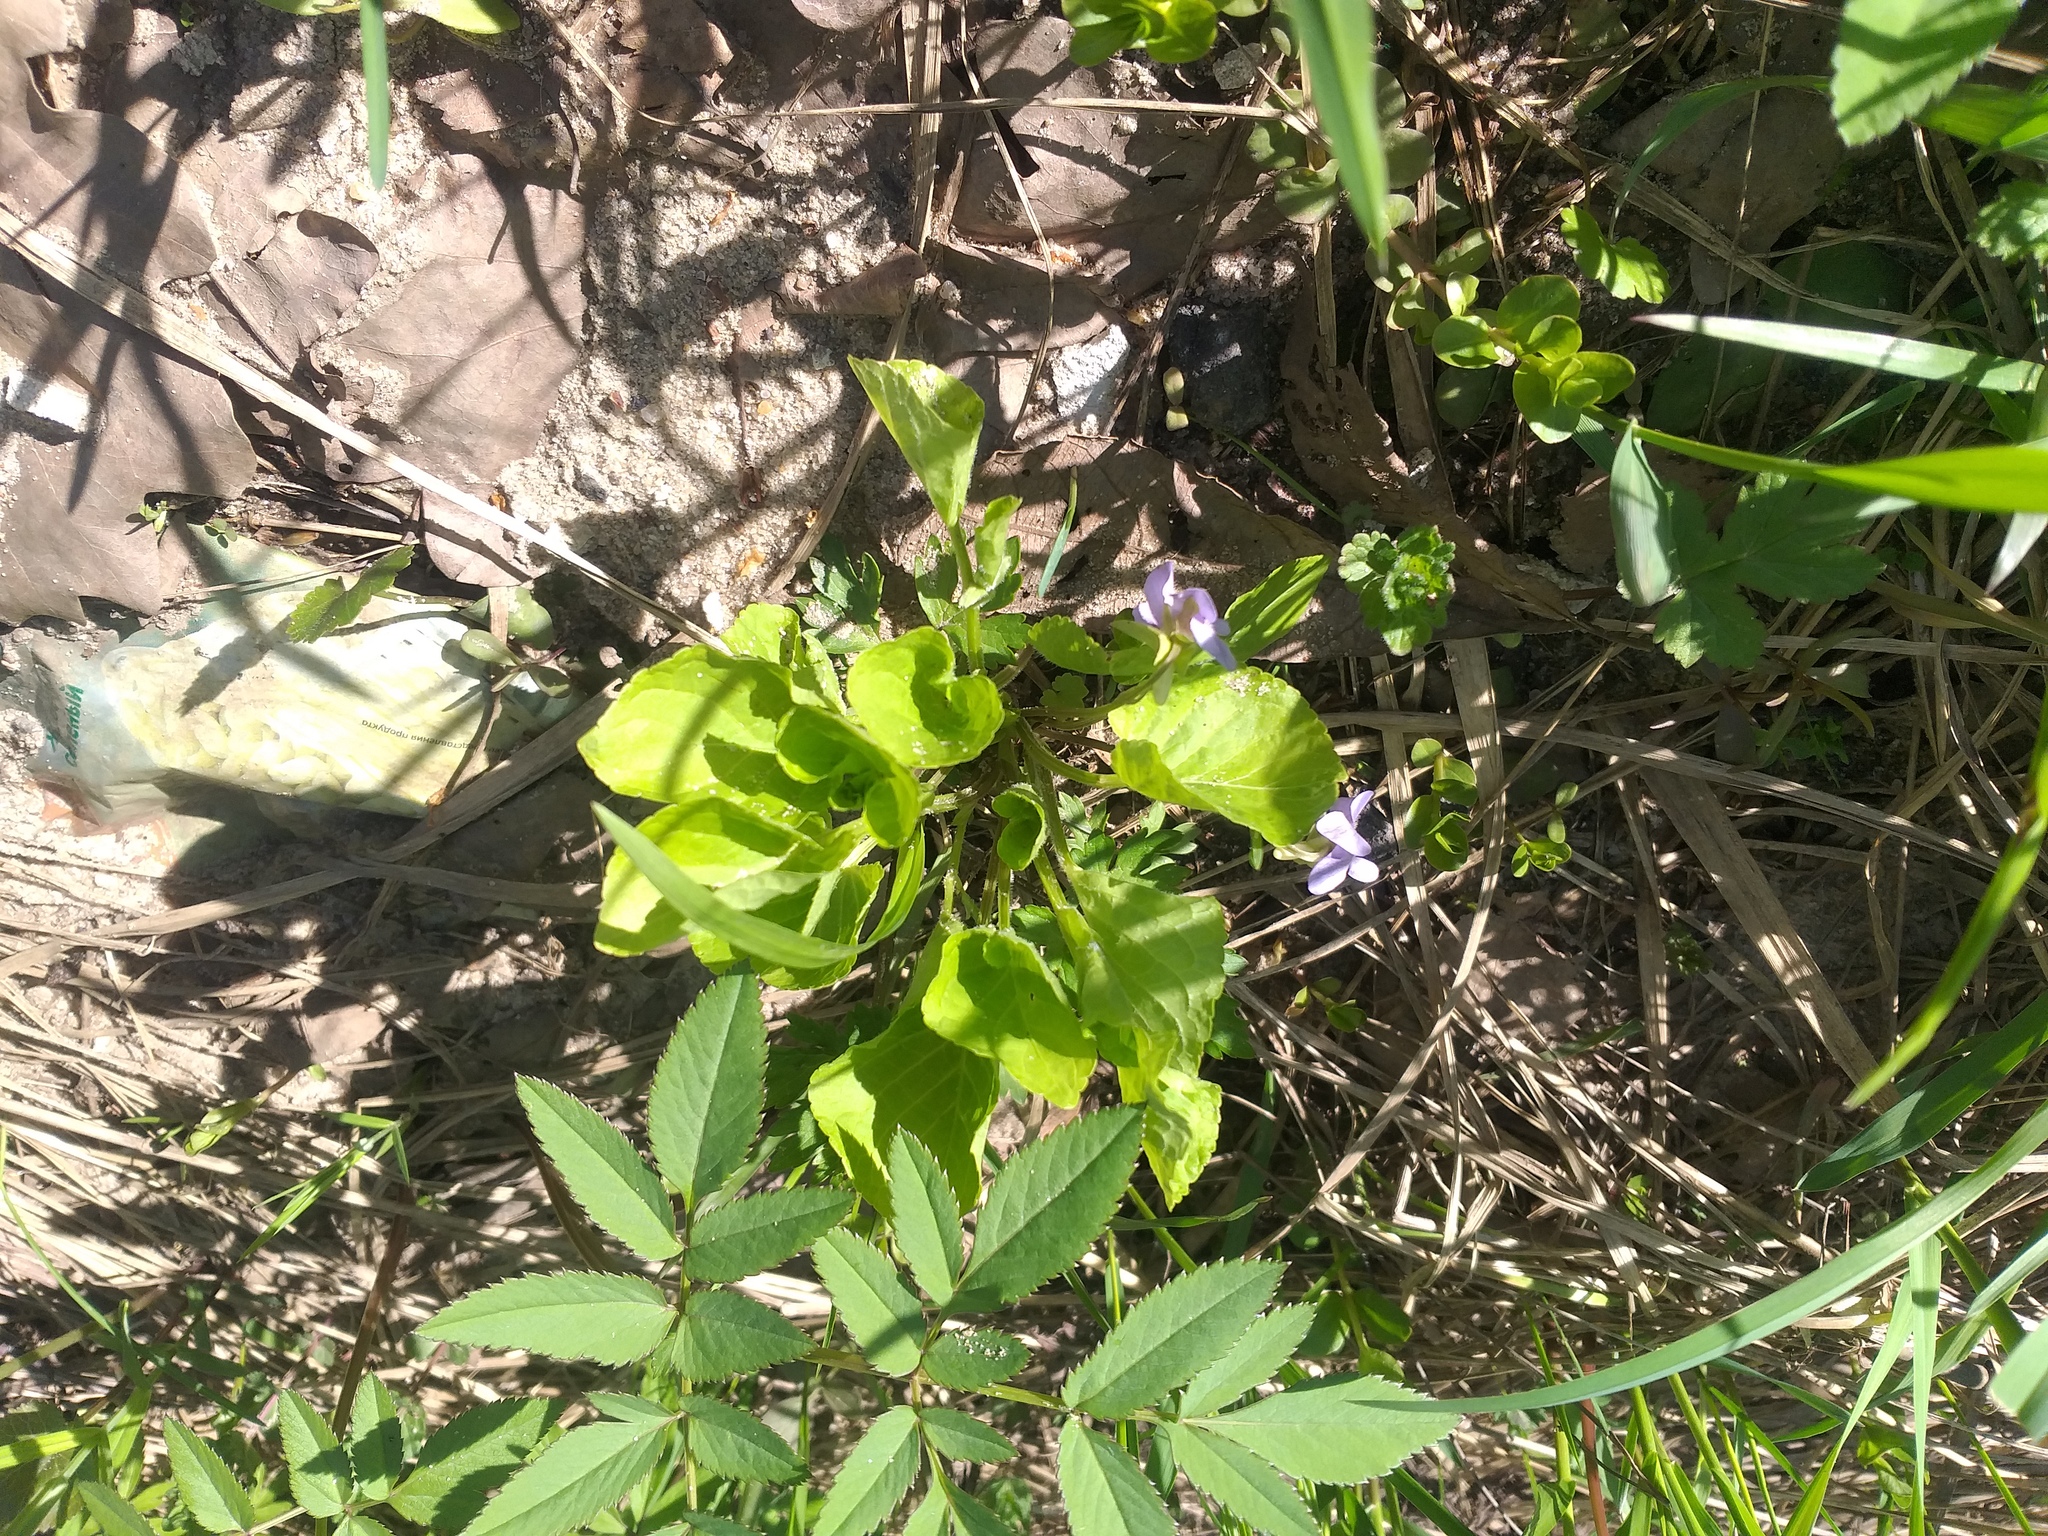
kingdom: Plantae
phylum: Tracheophyta
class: Magnoliopsida
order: Malpighiales
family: Violaceae
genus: Viola
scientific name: Viola mirabilis
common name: Wonder violet
